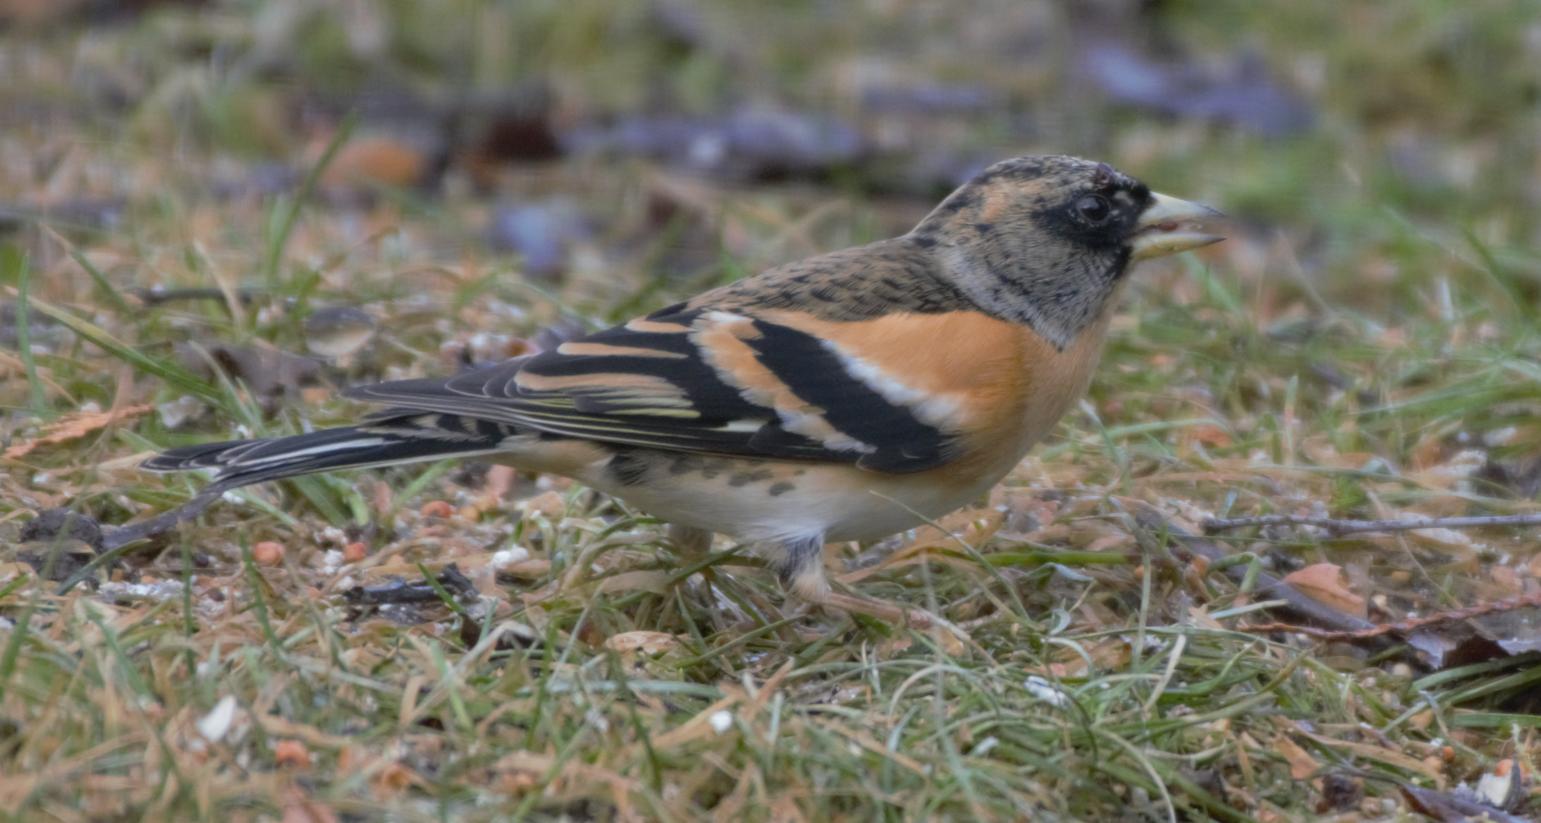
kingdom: Animalia
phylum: Chordata
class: Aves
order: Passeriformes
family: Fringillidae
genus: Fringilla
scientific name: Fringilla montifringilla
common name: Brambling
